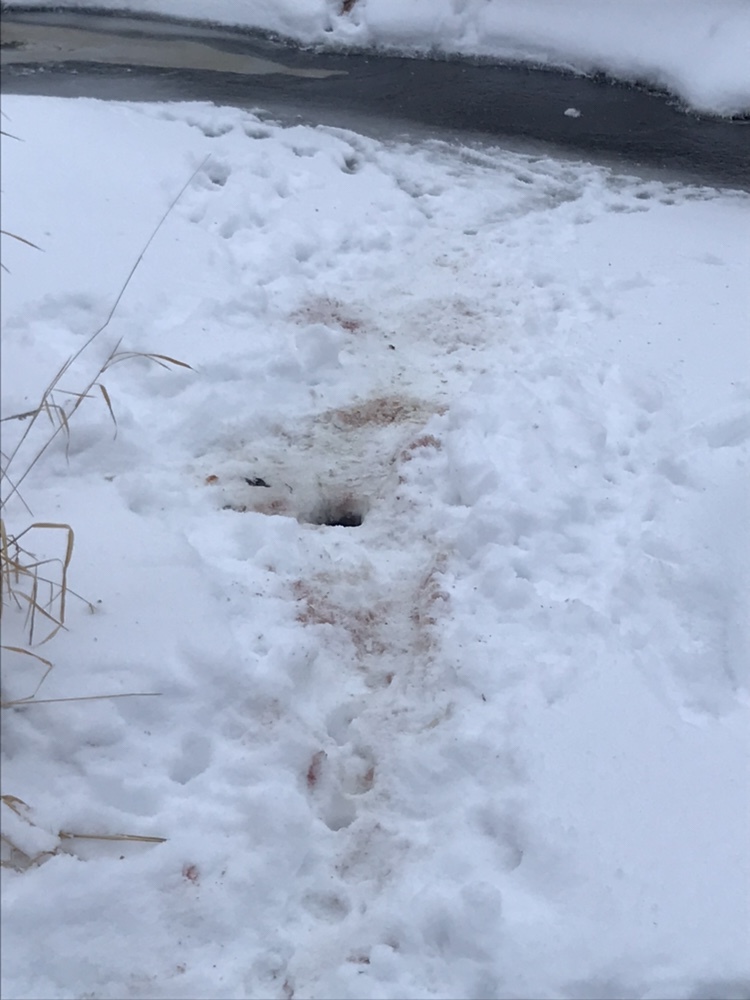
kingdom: Animalia
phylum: Chordata
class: Mammalia
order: Carnivora
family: Mustelidae
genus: Lontra
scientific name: Lontra canadensis
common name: North american river otter
